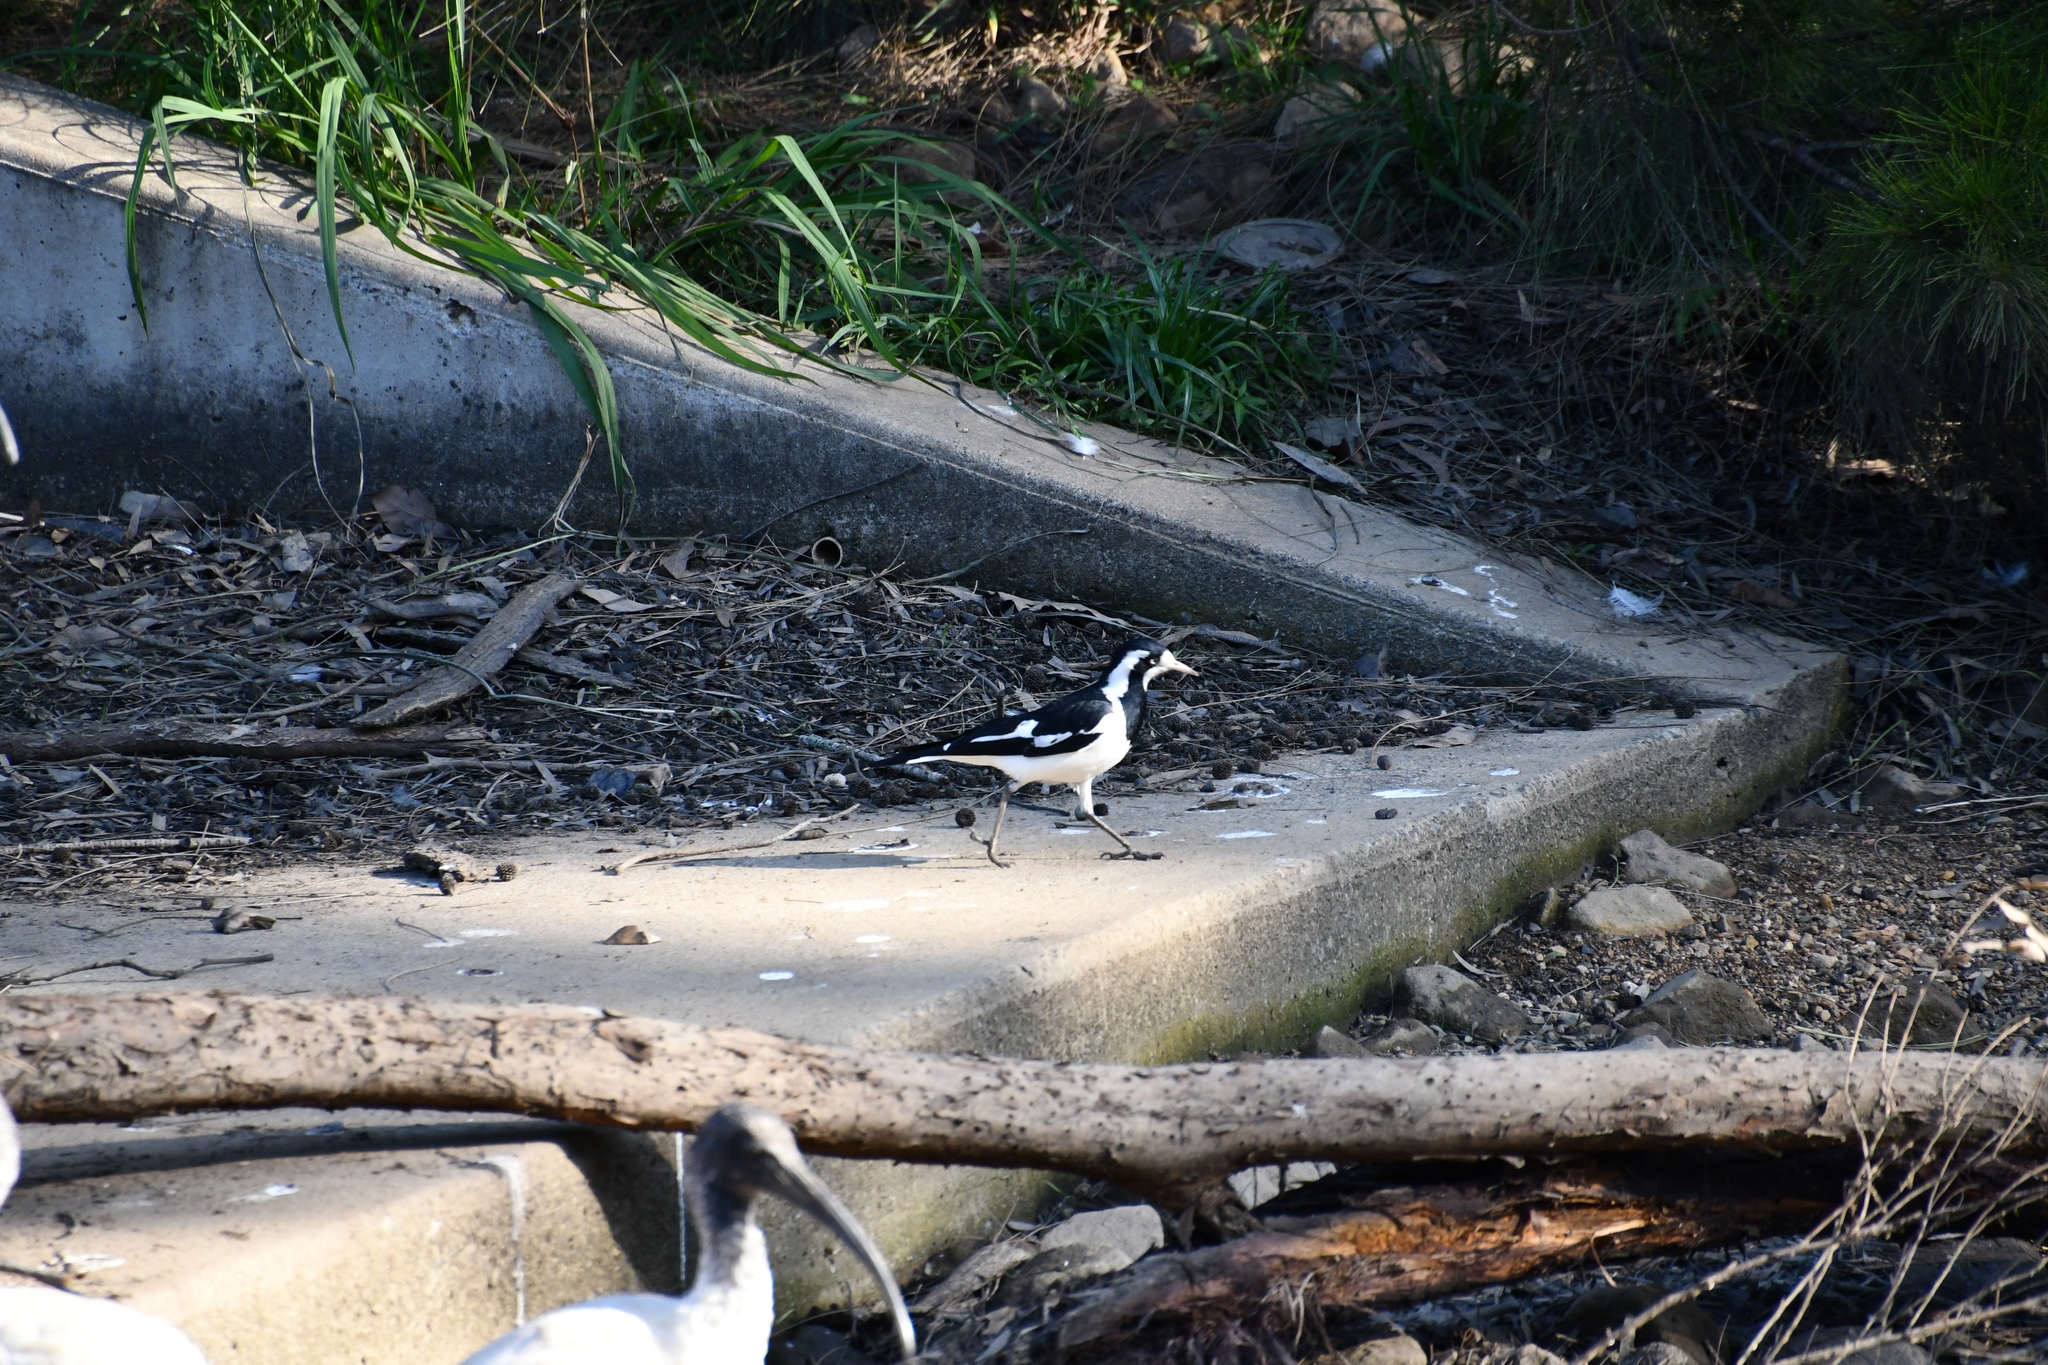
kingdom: Animalia
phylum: Chordata
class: Aves
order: Passeriformes
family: Monarchidae
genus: Grallina
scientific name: Grallina cyanoleuca
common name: Magpie-lark
